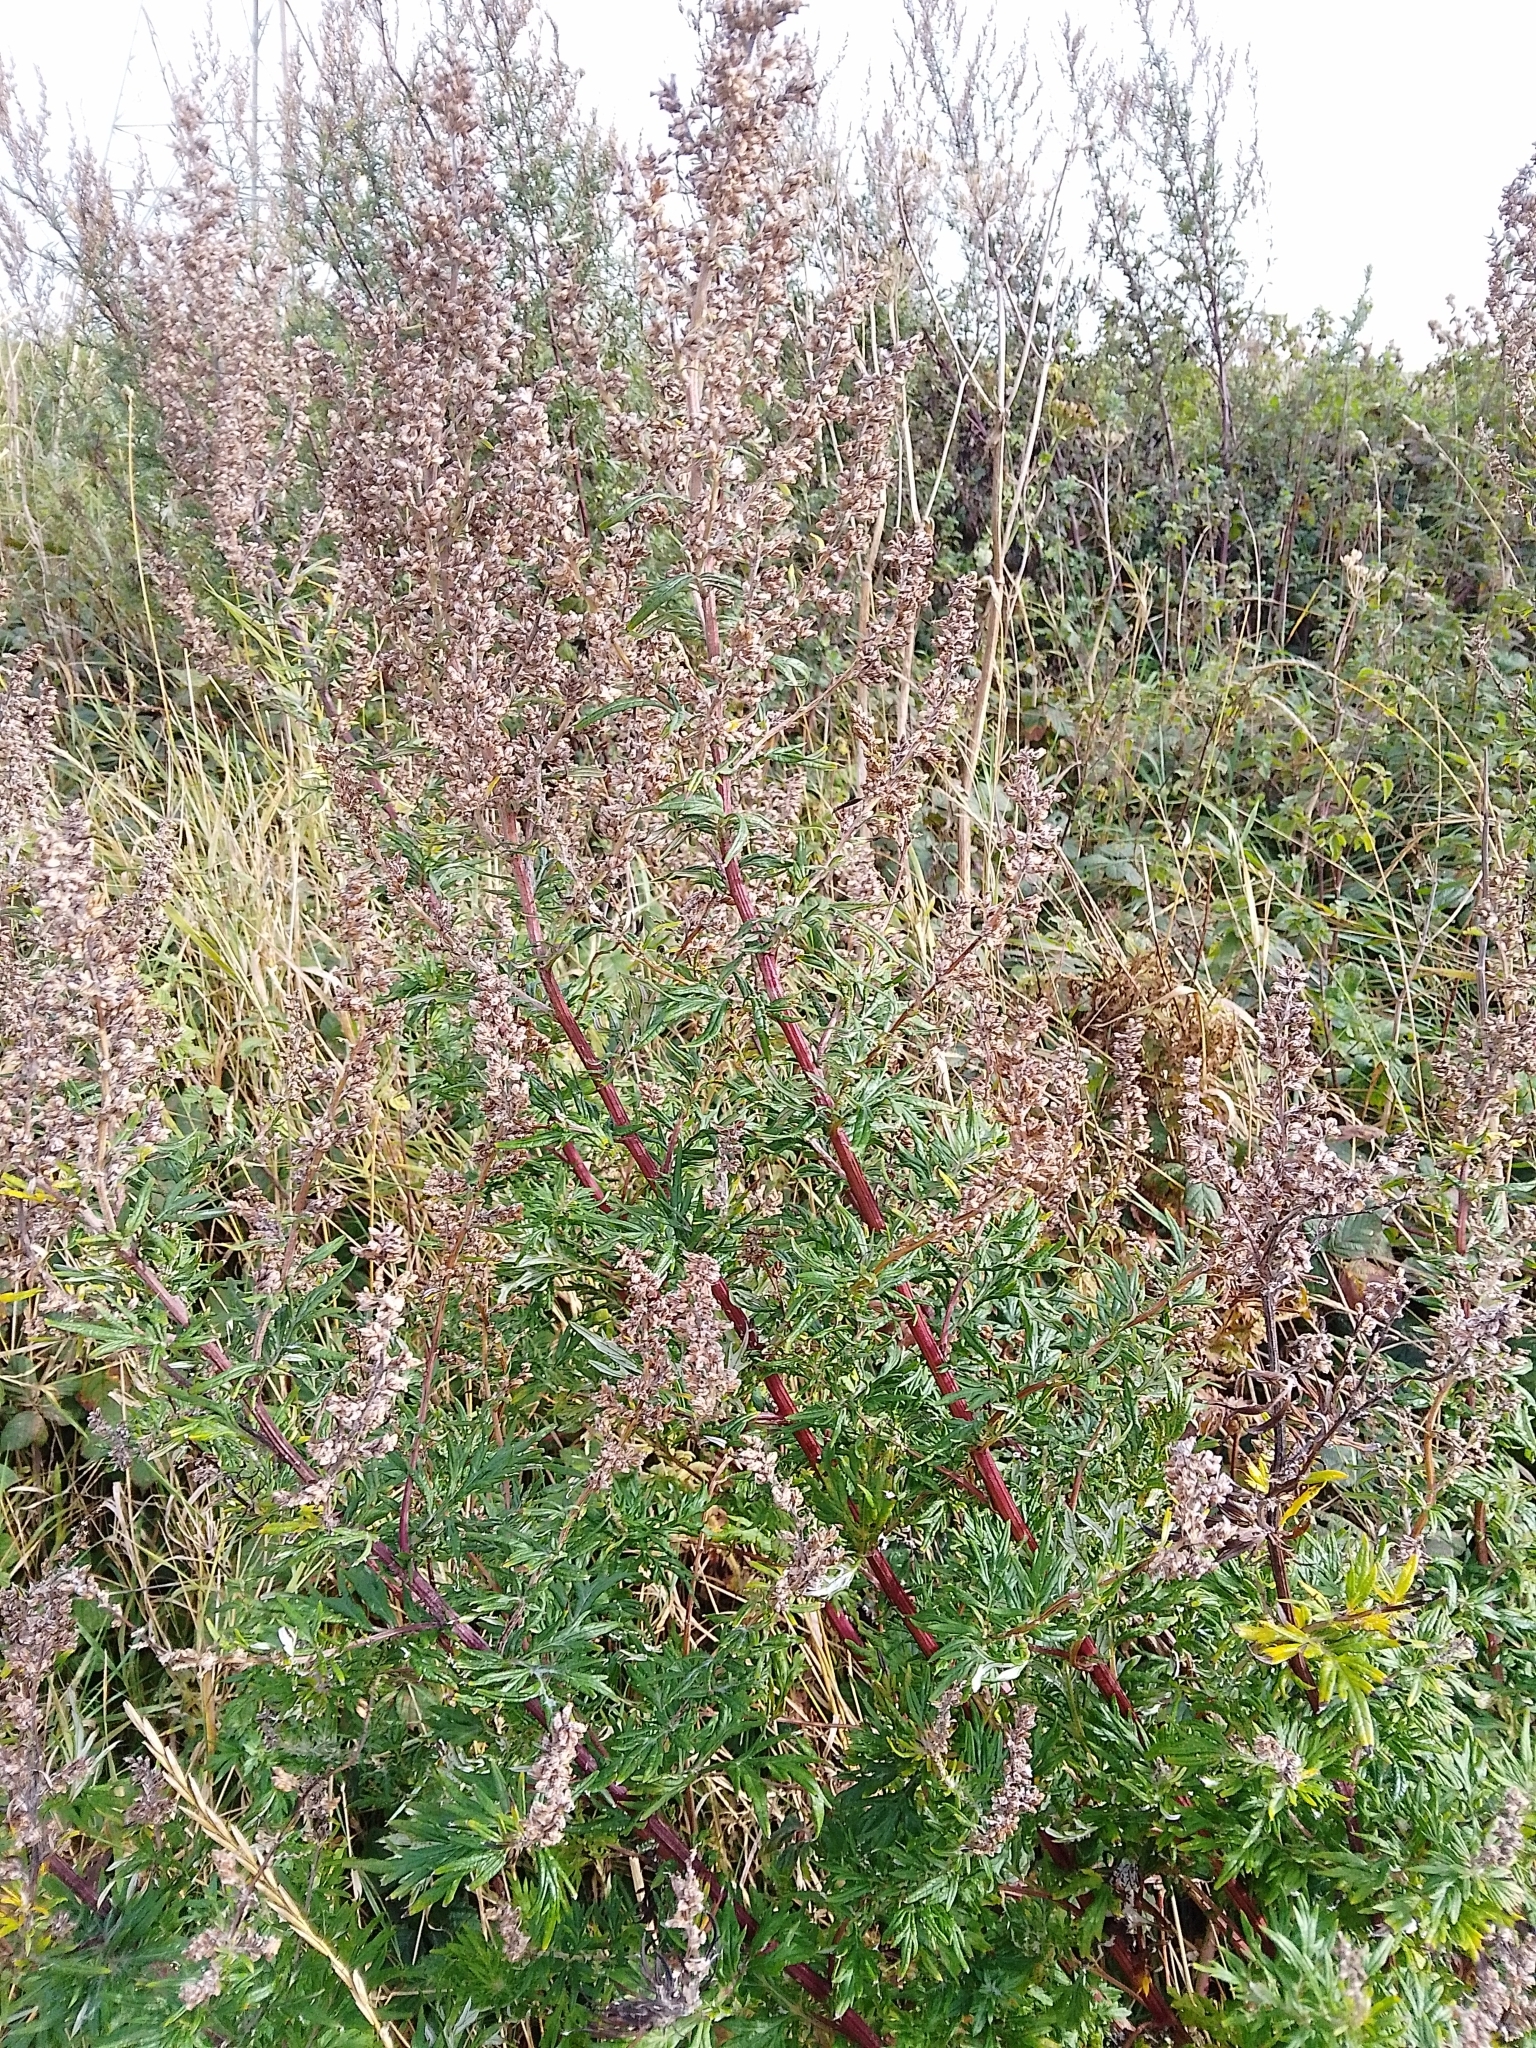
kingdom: Plantae
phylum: Tracheophyta
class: Magnoliopsida
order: Asterales
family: Asteraceae
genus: Artemisia
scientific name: Artemisia vulgaris
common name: Mugwort
